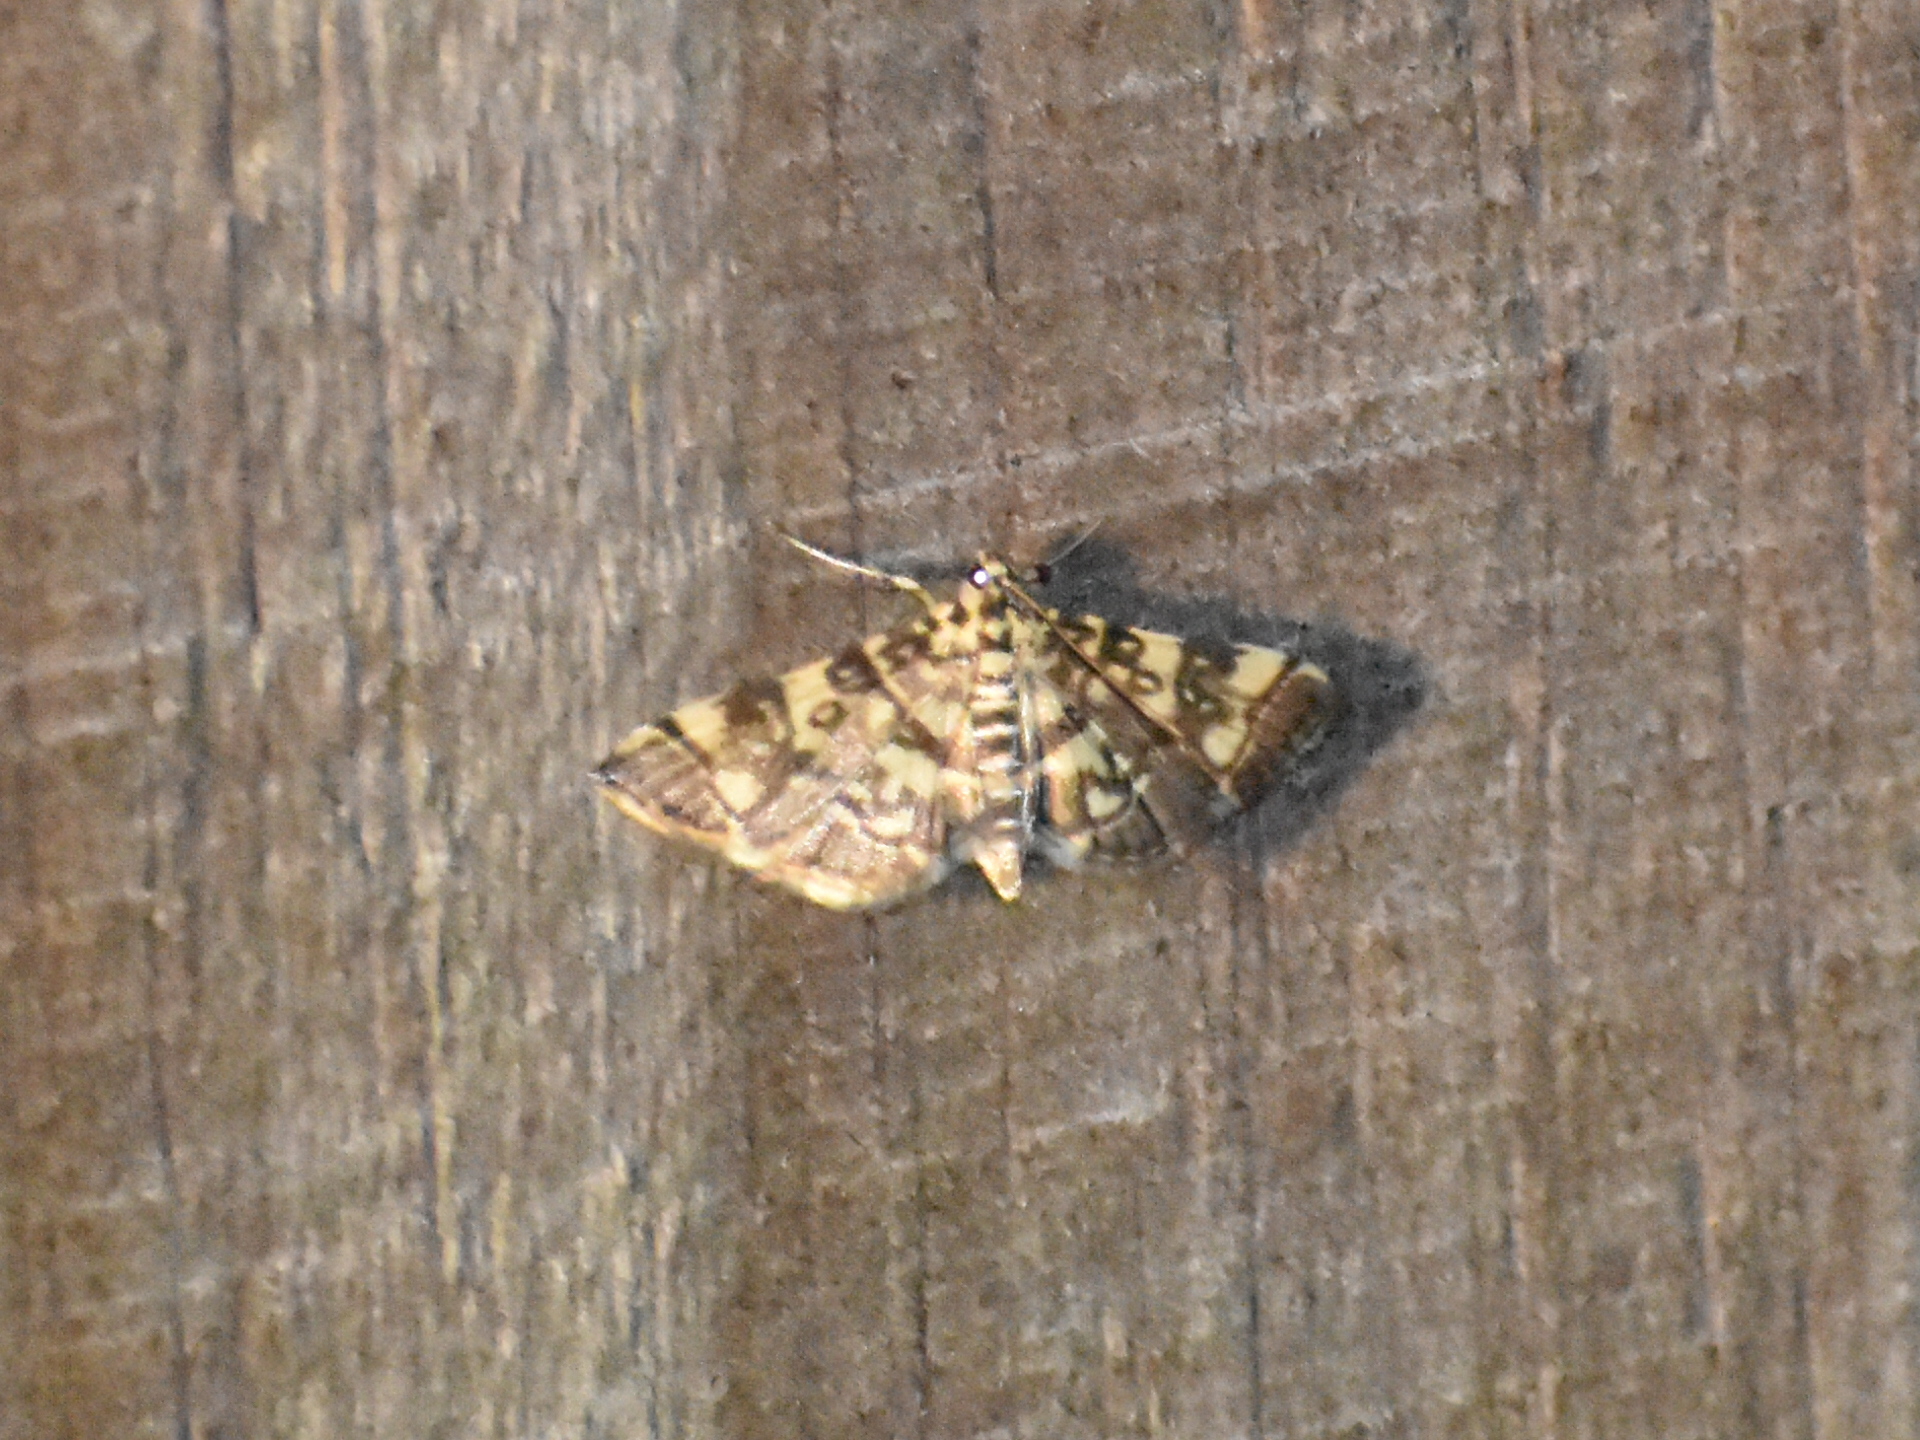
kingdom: Animalia
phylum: Arthropoda
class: Insecta
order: Lepidoptera
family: Crambidae
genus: Apogeshna
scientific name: Apogeshna stenialis
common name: Checkered apogeshna moth
